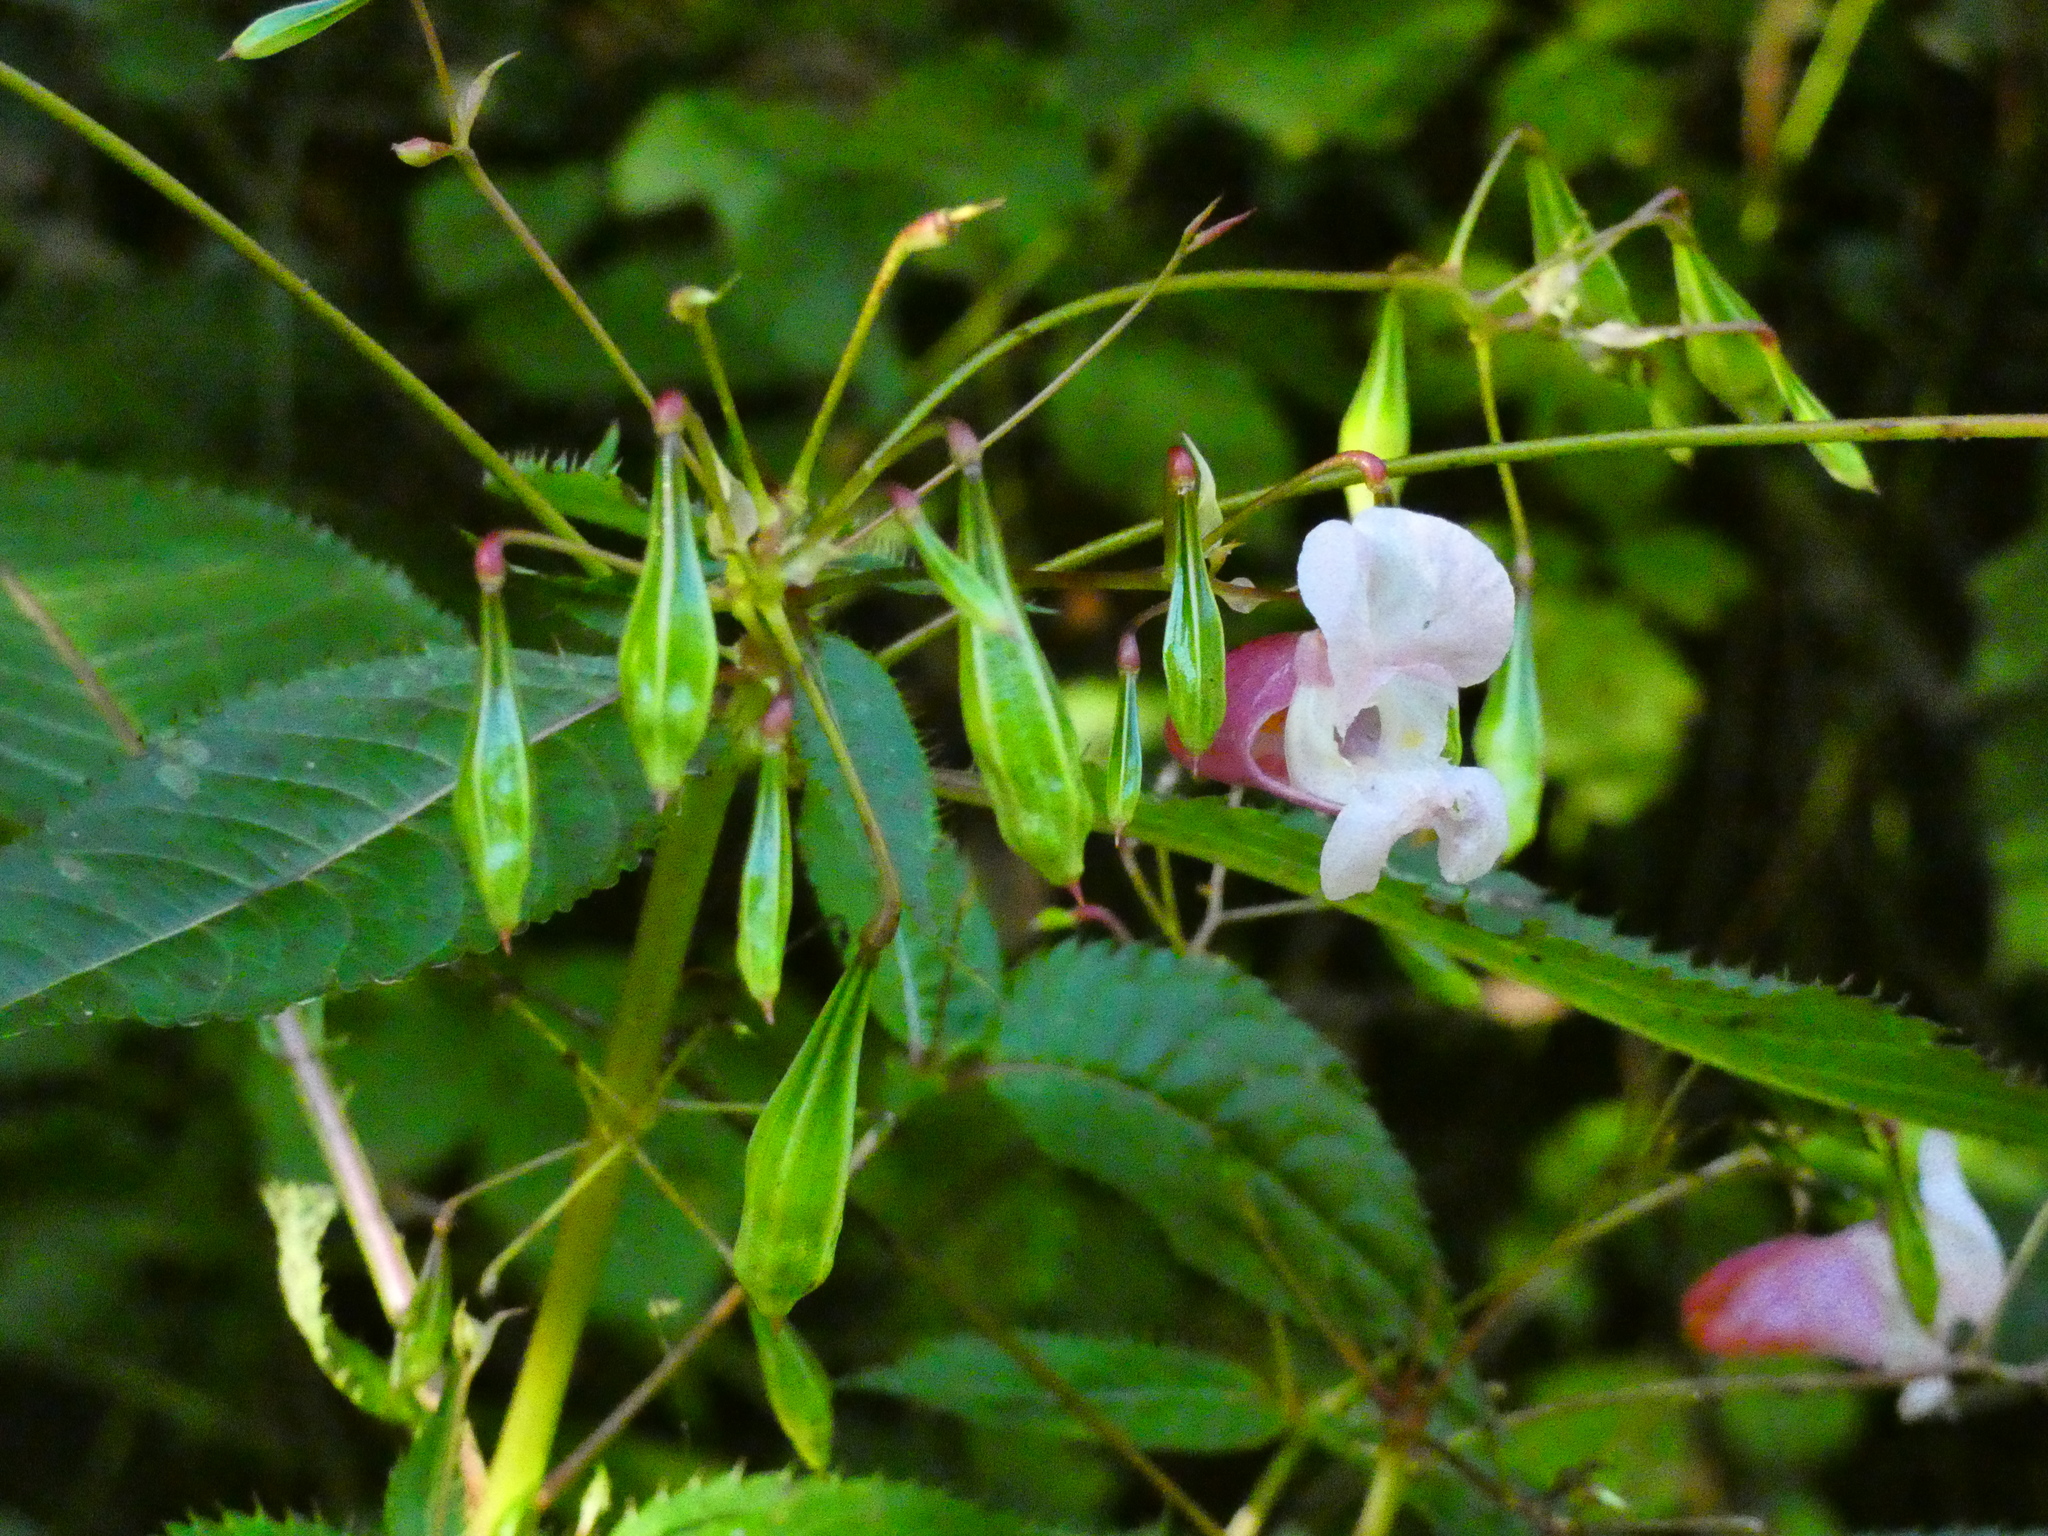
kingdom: Plantae
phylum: Tracheophyta
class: Magnoliopsida
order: Ericales
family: Balsaminaceae
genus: Impatiens
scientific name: Impatiens glandulifera
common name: Himalayan balsam
